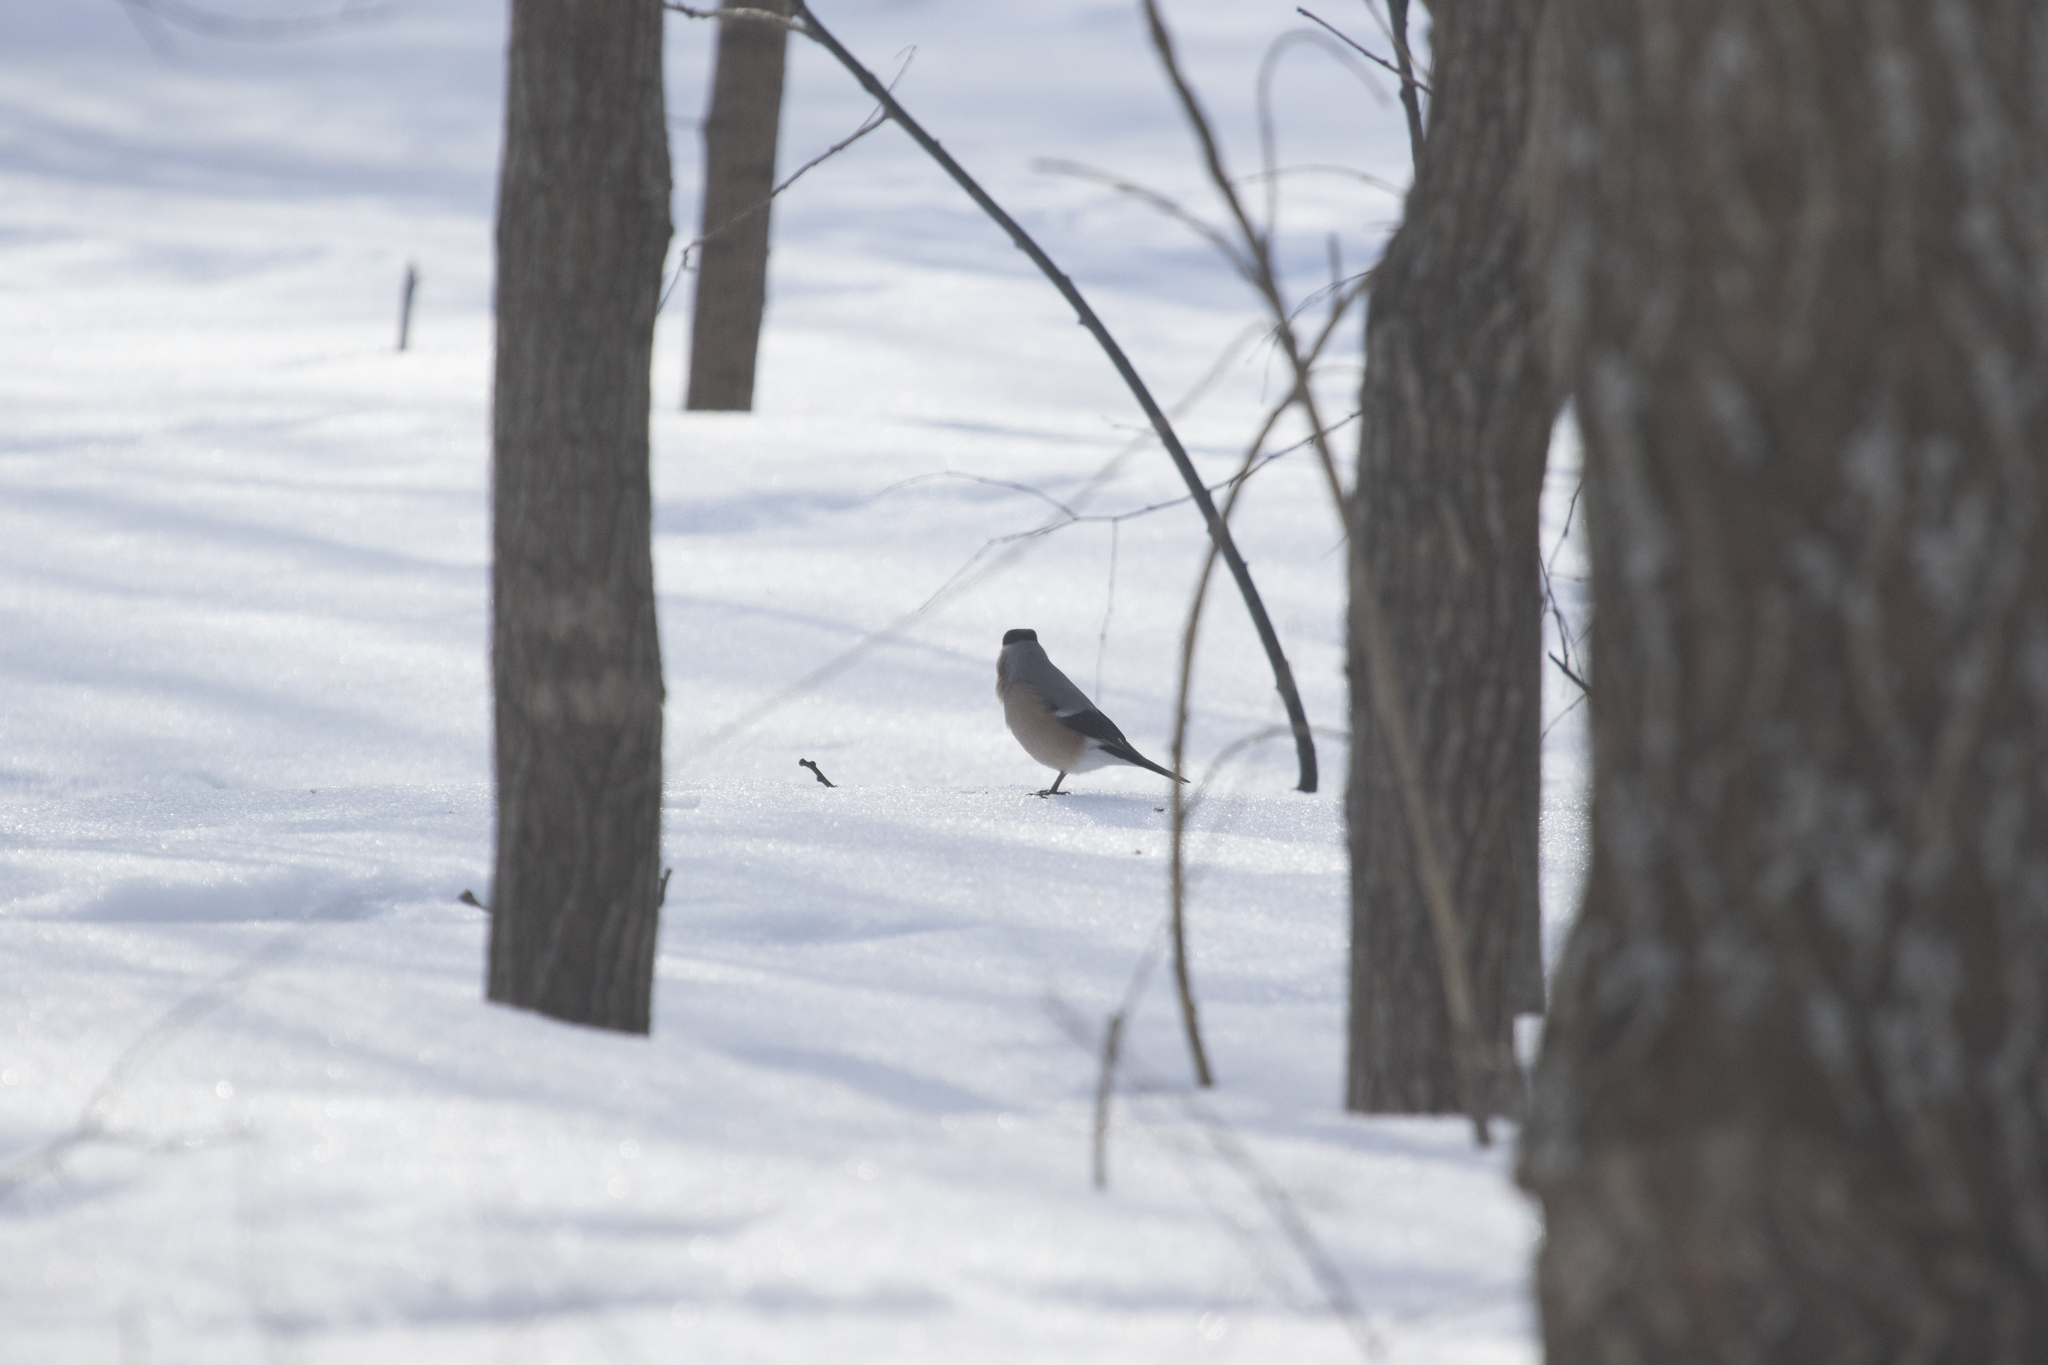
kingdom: Animalia
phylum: Chordata
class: Aves
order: Passeriformes
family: Fringillidae
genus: Pyrrhula
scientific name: Pyrrhula pyrrhula
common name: Eurasian bullfinch
